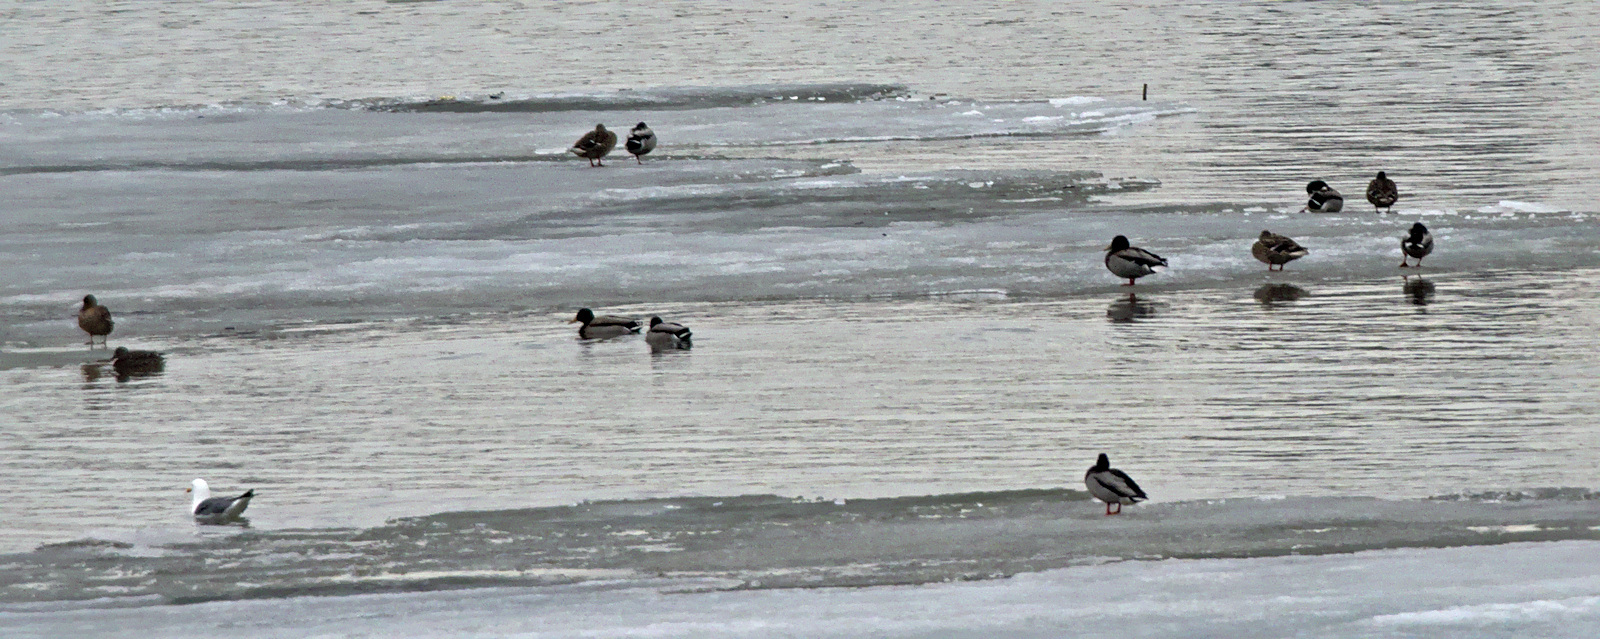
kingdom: Animalia
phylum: Chordata
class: Aves
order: Anseriformes
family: Anatidae
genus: Anas
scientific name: Anas platyrhynchos
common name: Mallard
